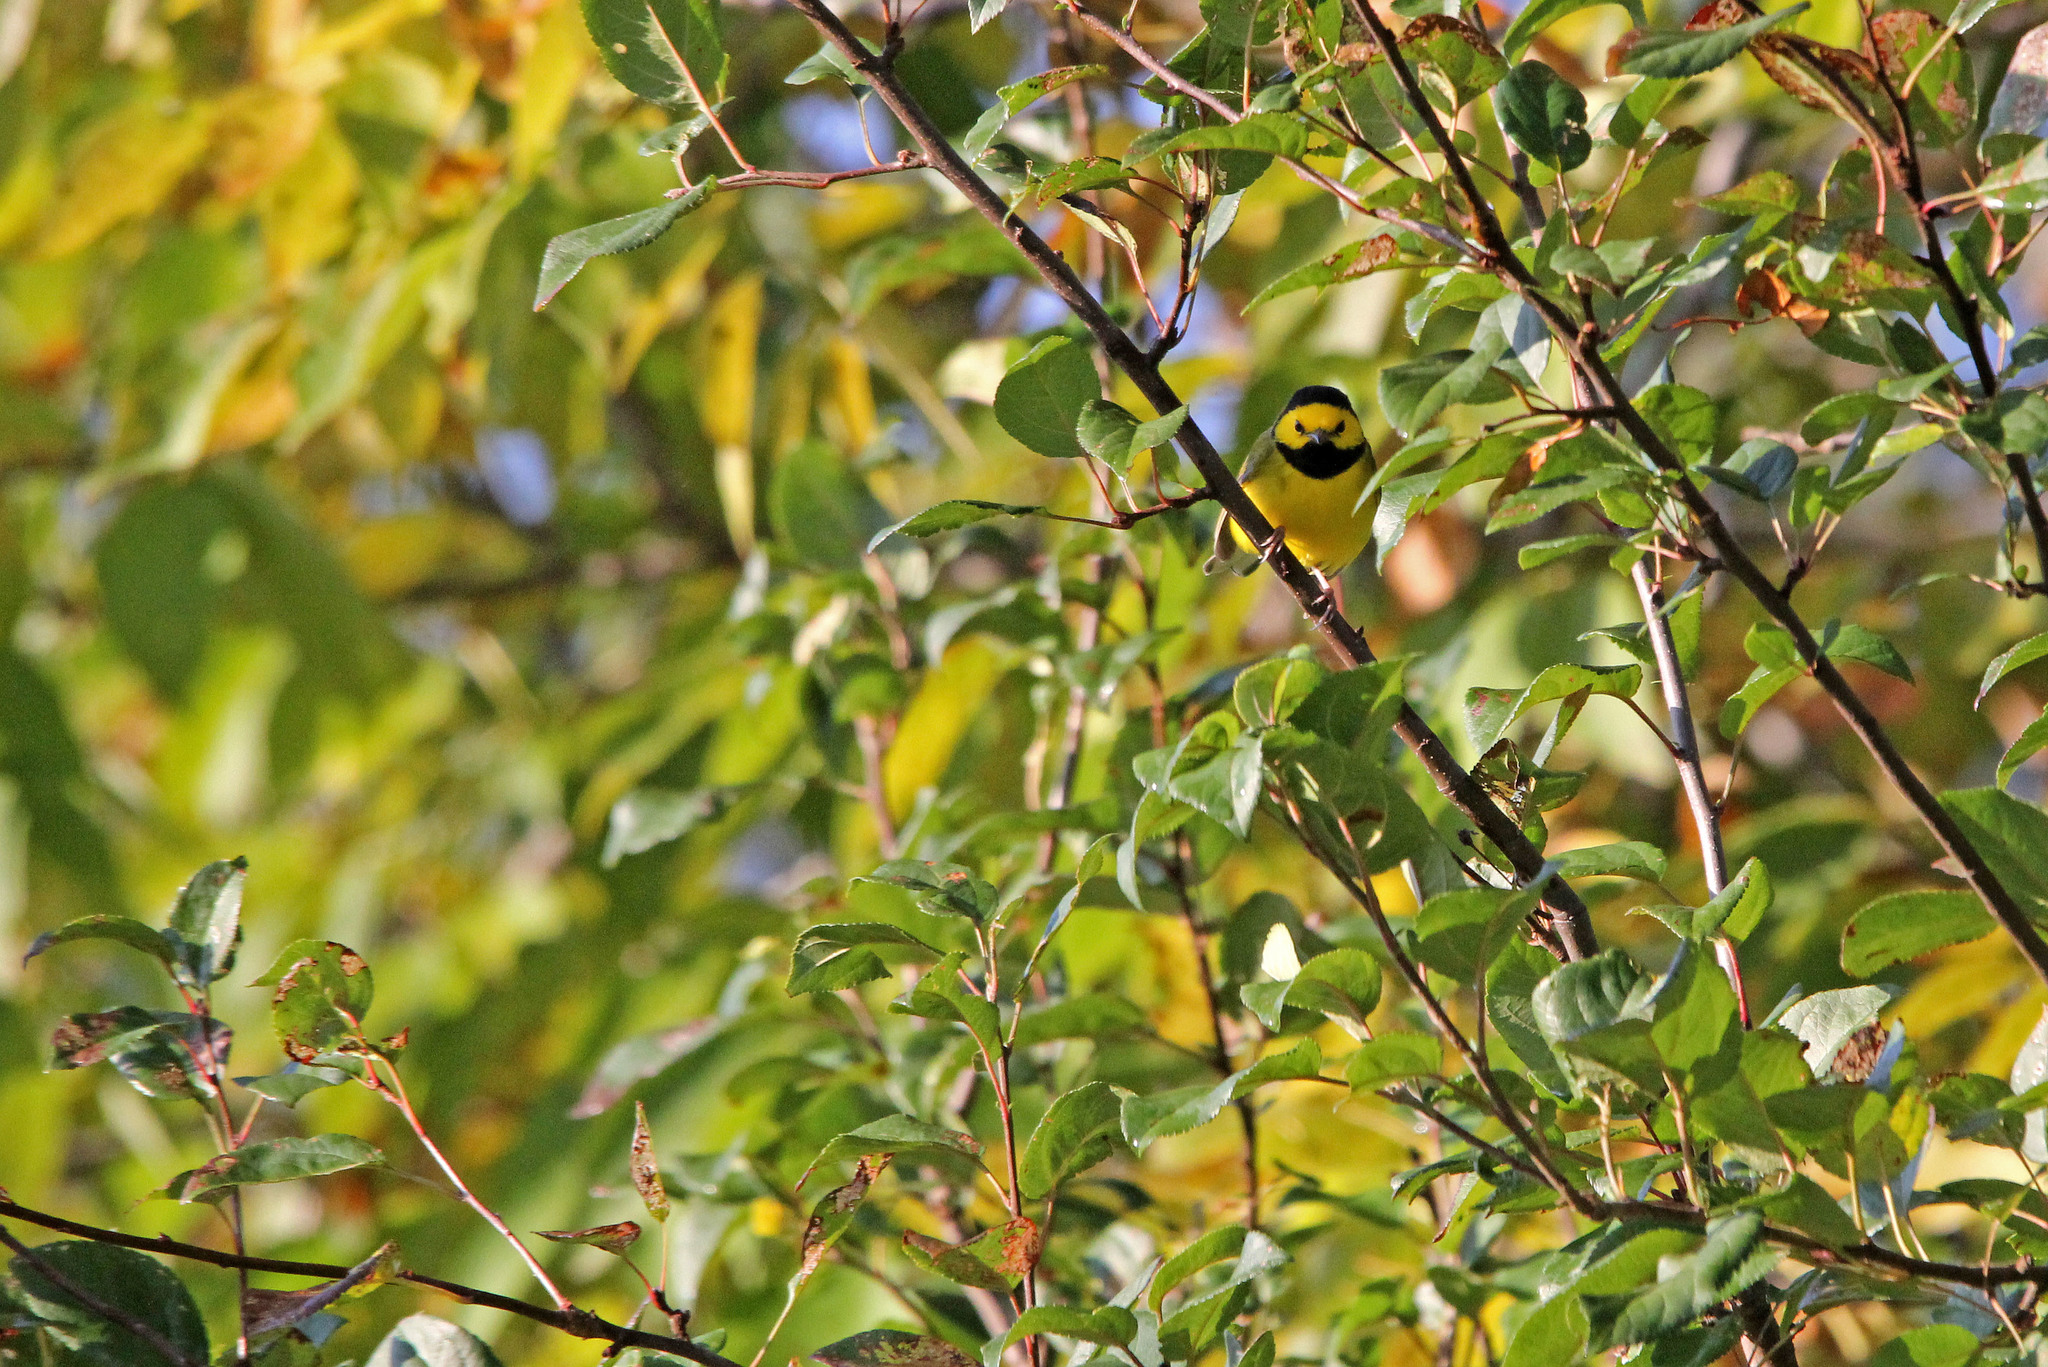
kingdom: Animalia
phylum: Chordata
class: Aves
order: Passeriformes
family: Parulidae
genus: Setophaga
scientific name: Setophaga citrina
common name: Hooded warbler
